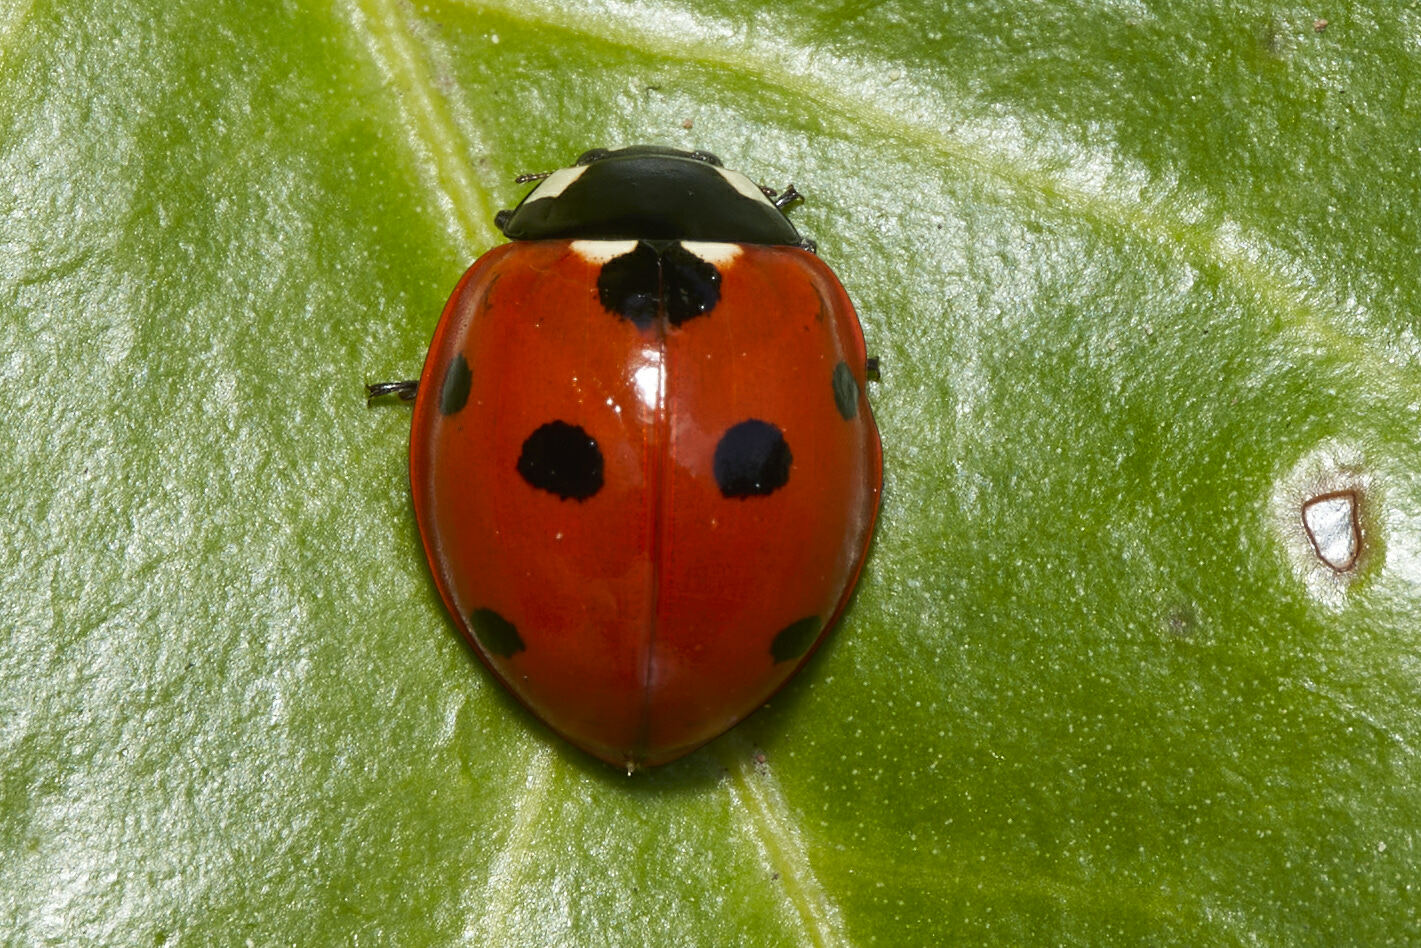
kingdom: Animalia
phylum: Arthropoda
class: Insecta
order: Coleoptera
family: Coccinellidae
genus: Coccinella
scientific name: Coccinella septempunctata
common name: Sevenspotted lady beetle
